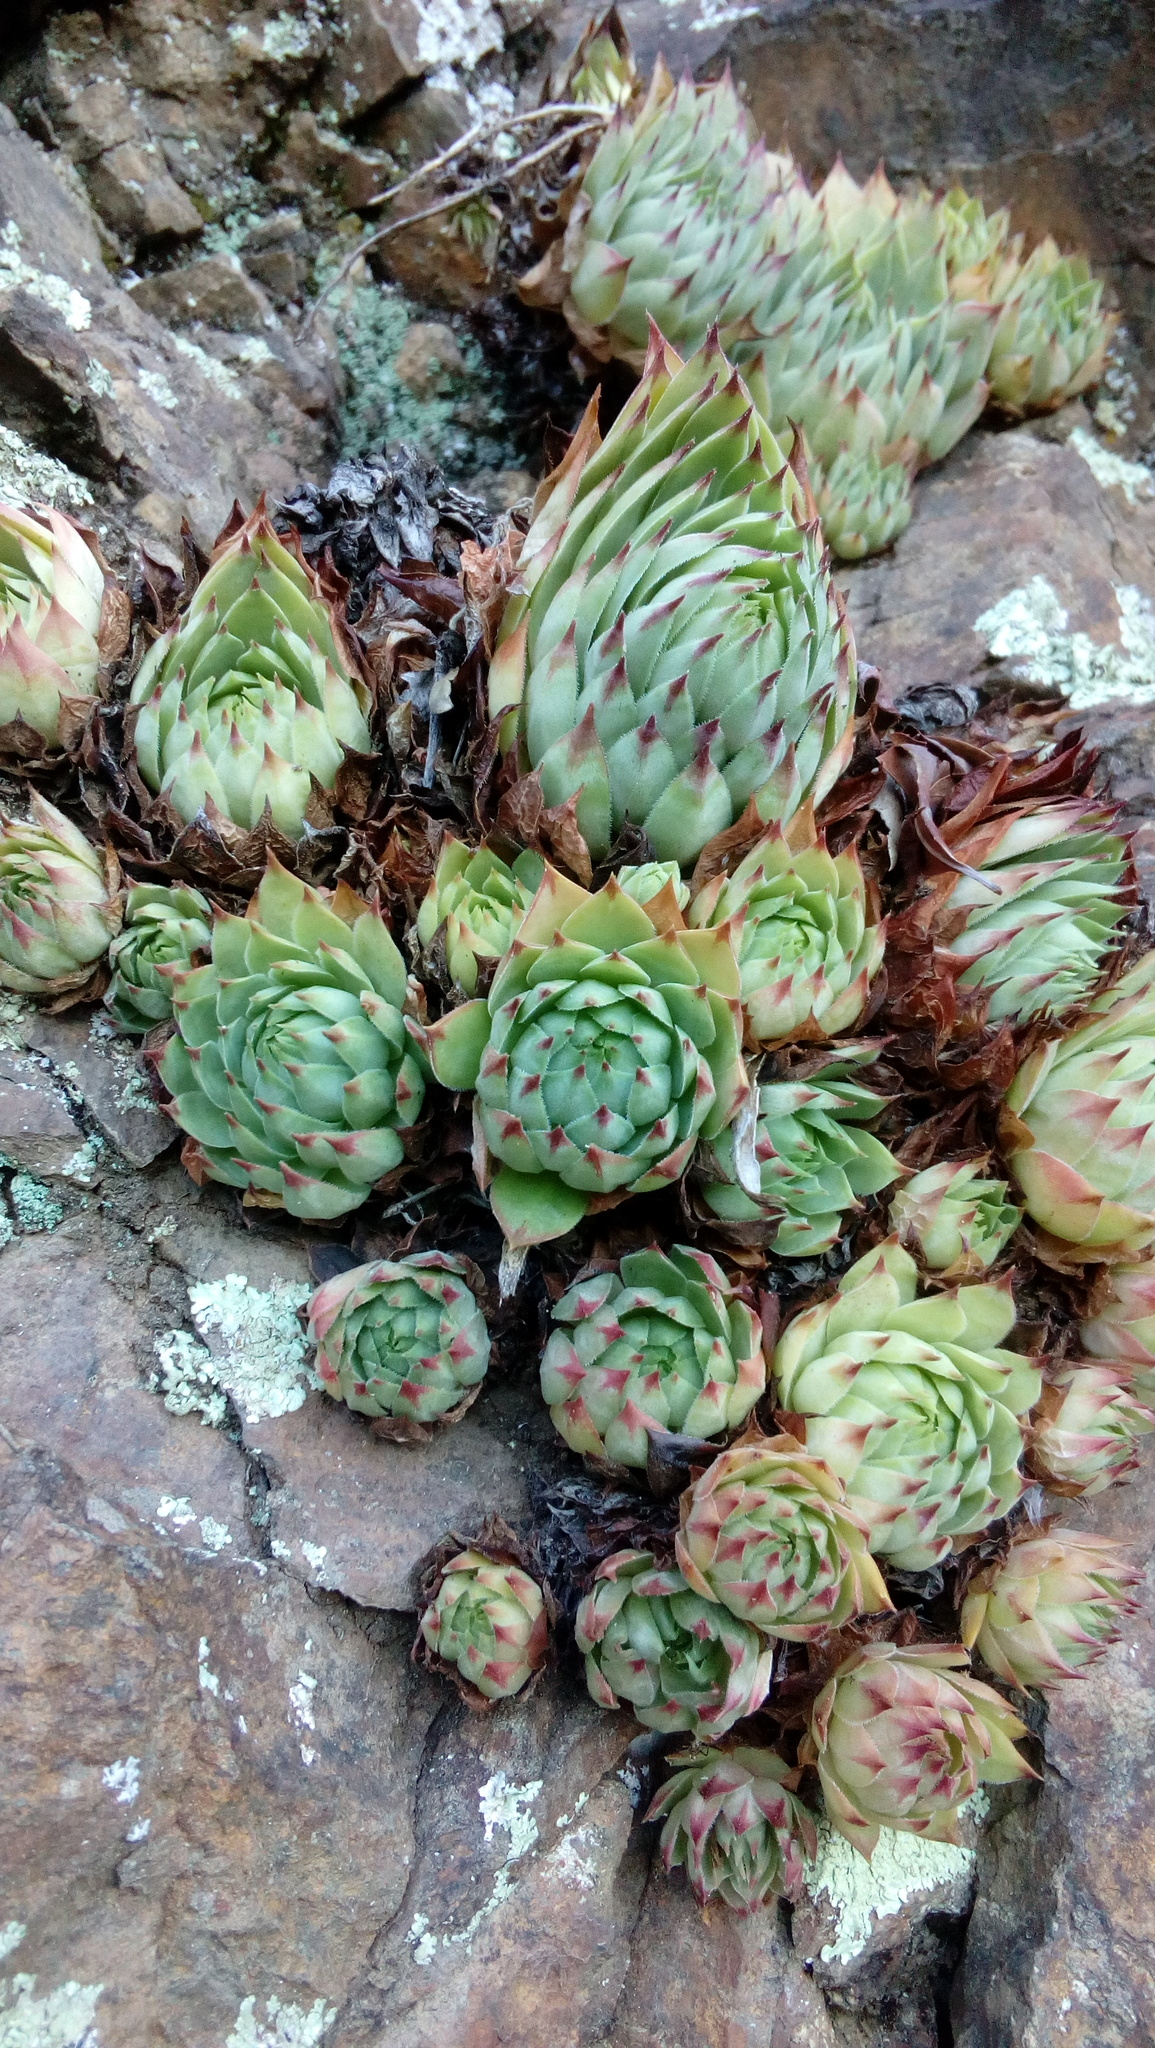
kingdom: Plantae
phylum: Tracheophyta
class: Magnoliopsida
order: Saxifragales
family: Crassulaceae
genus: Sempervivum
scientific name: Sempervivum tectorum
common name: House-leek
